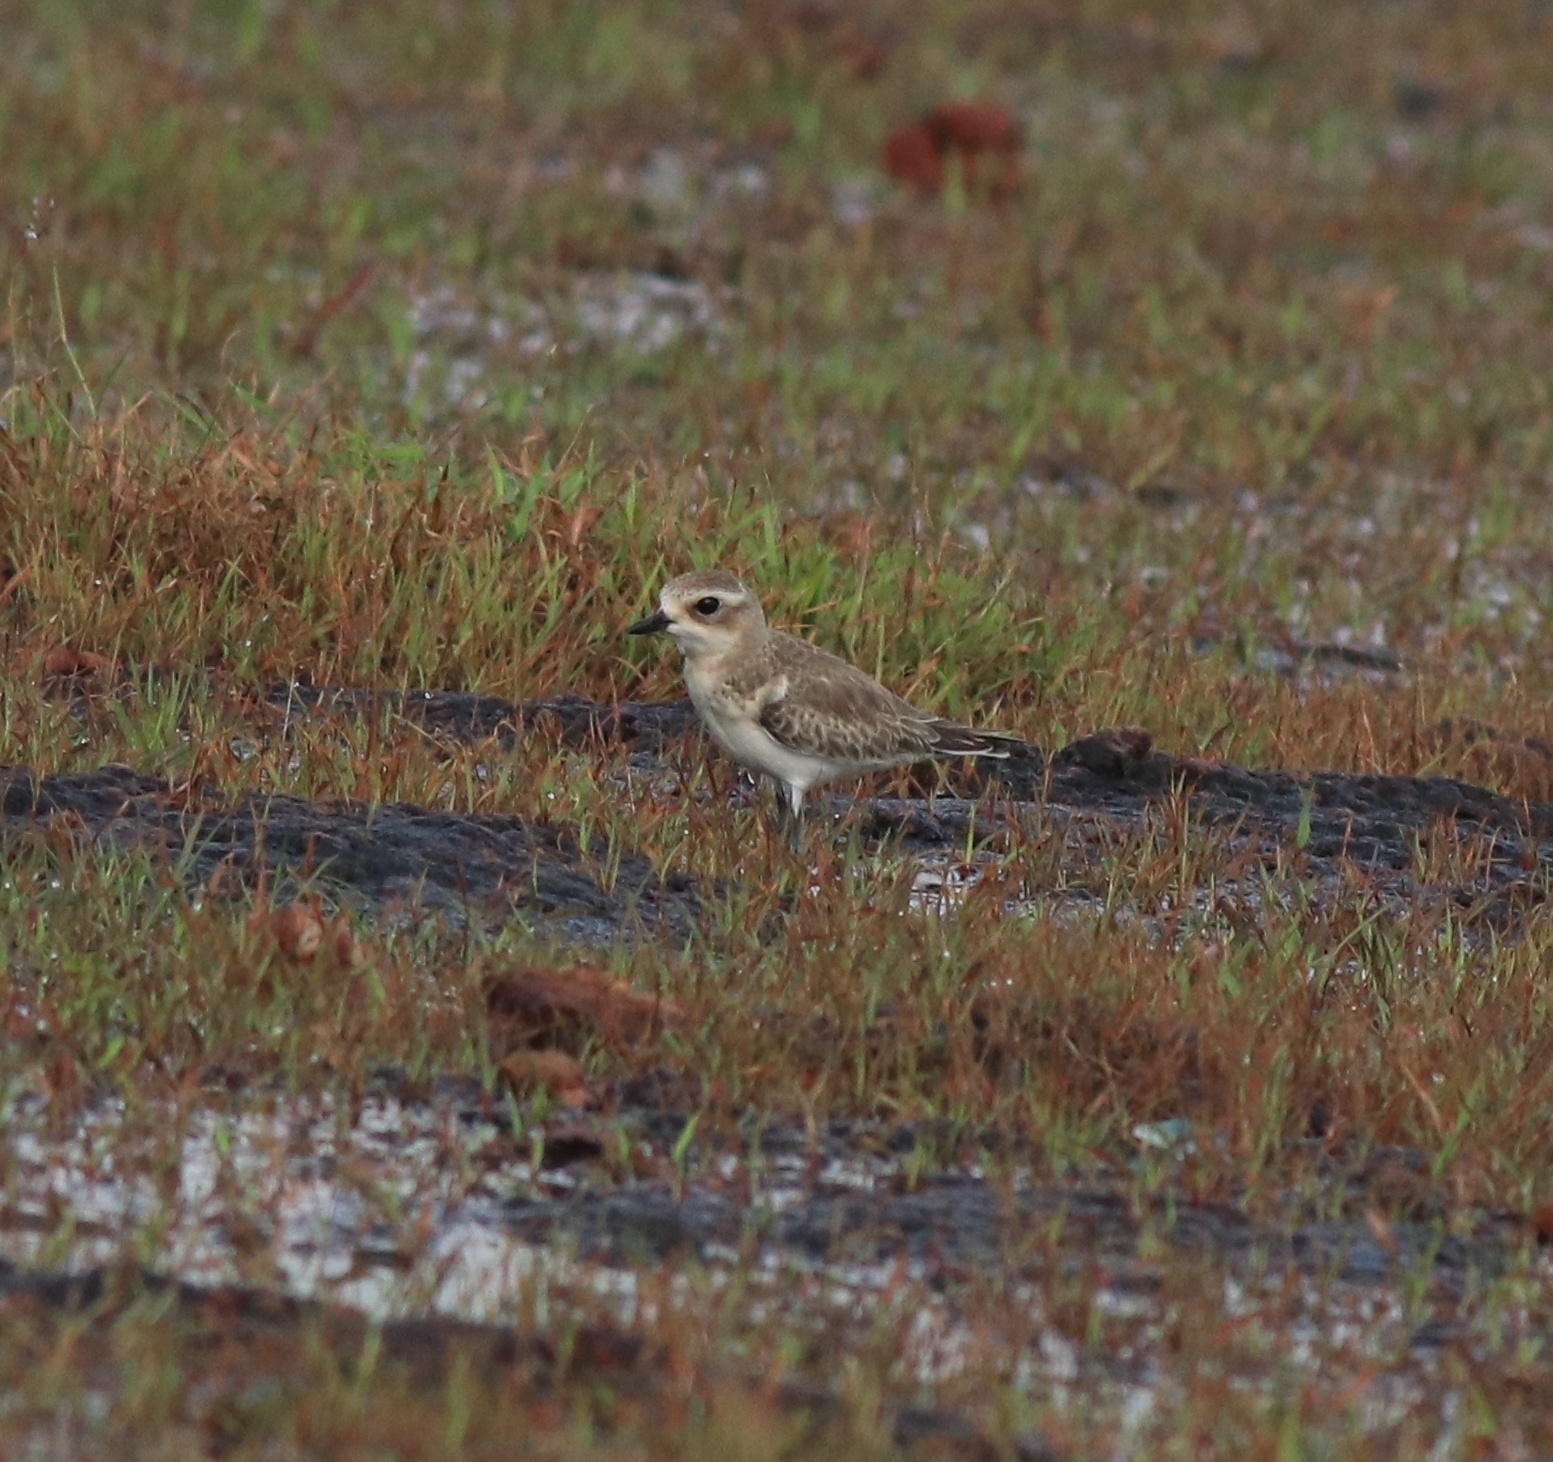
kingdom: Animalia
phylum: Chordata
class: Aves
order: Charadriiformes
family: Charadriidae
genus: Anarhynchus
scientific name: Anarhynchus
